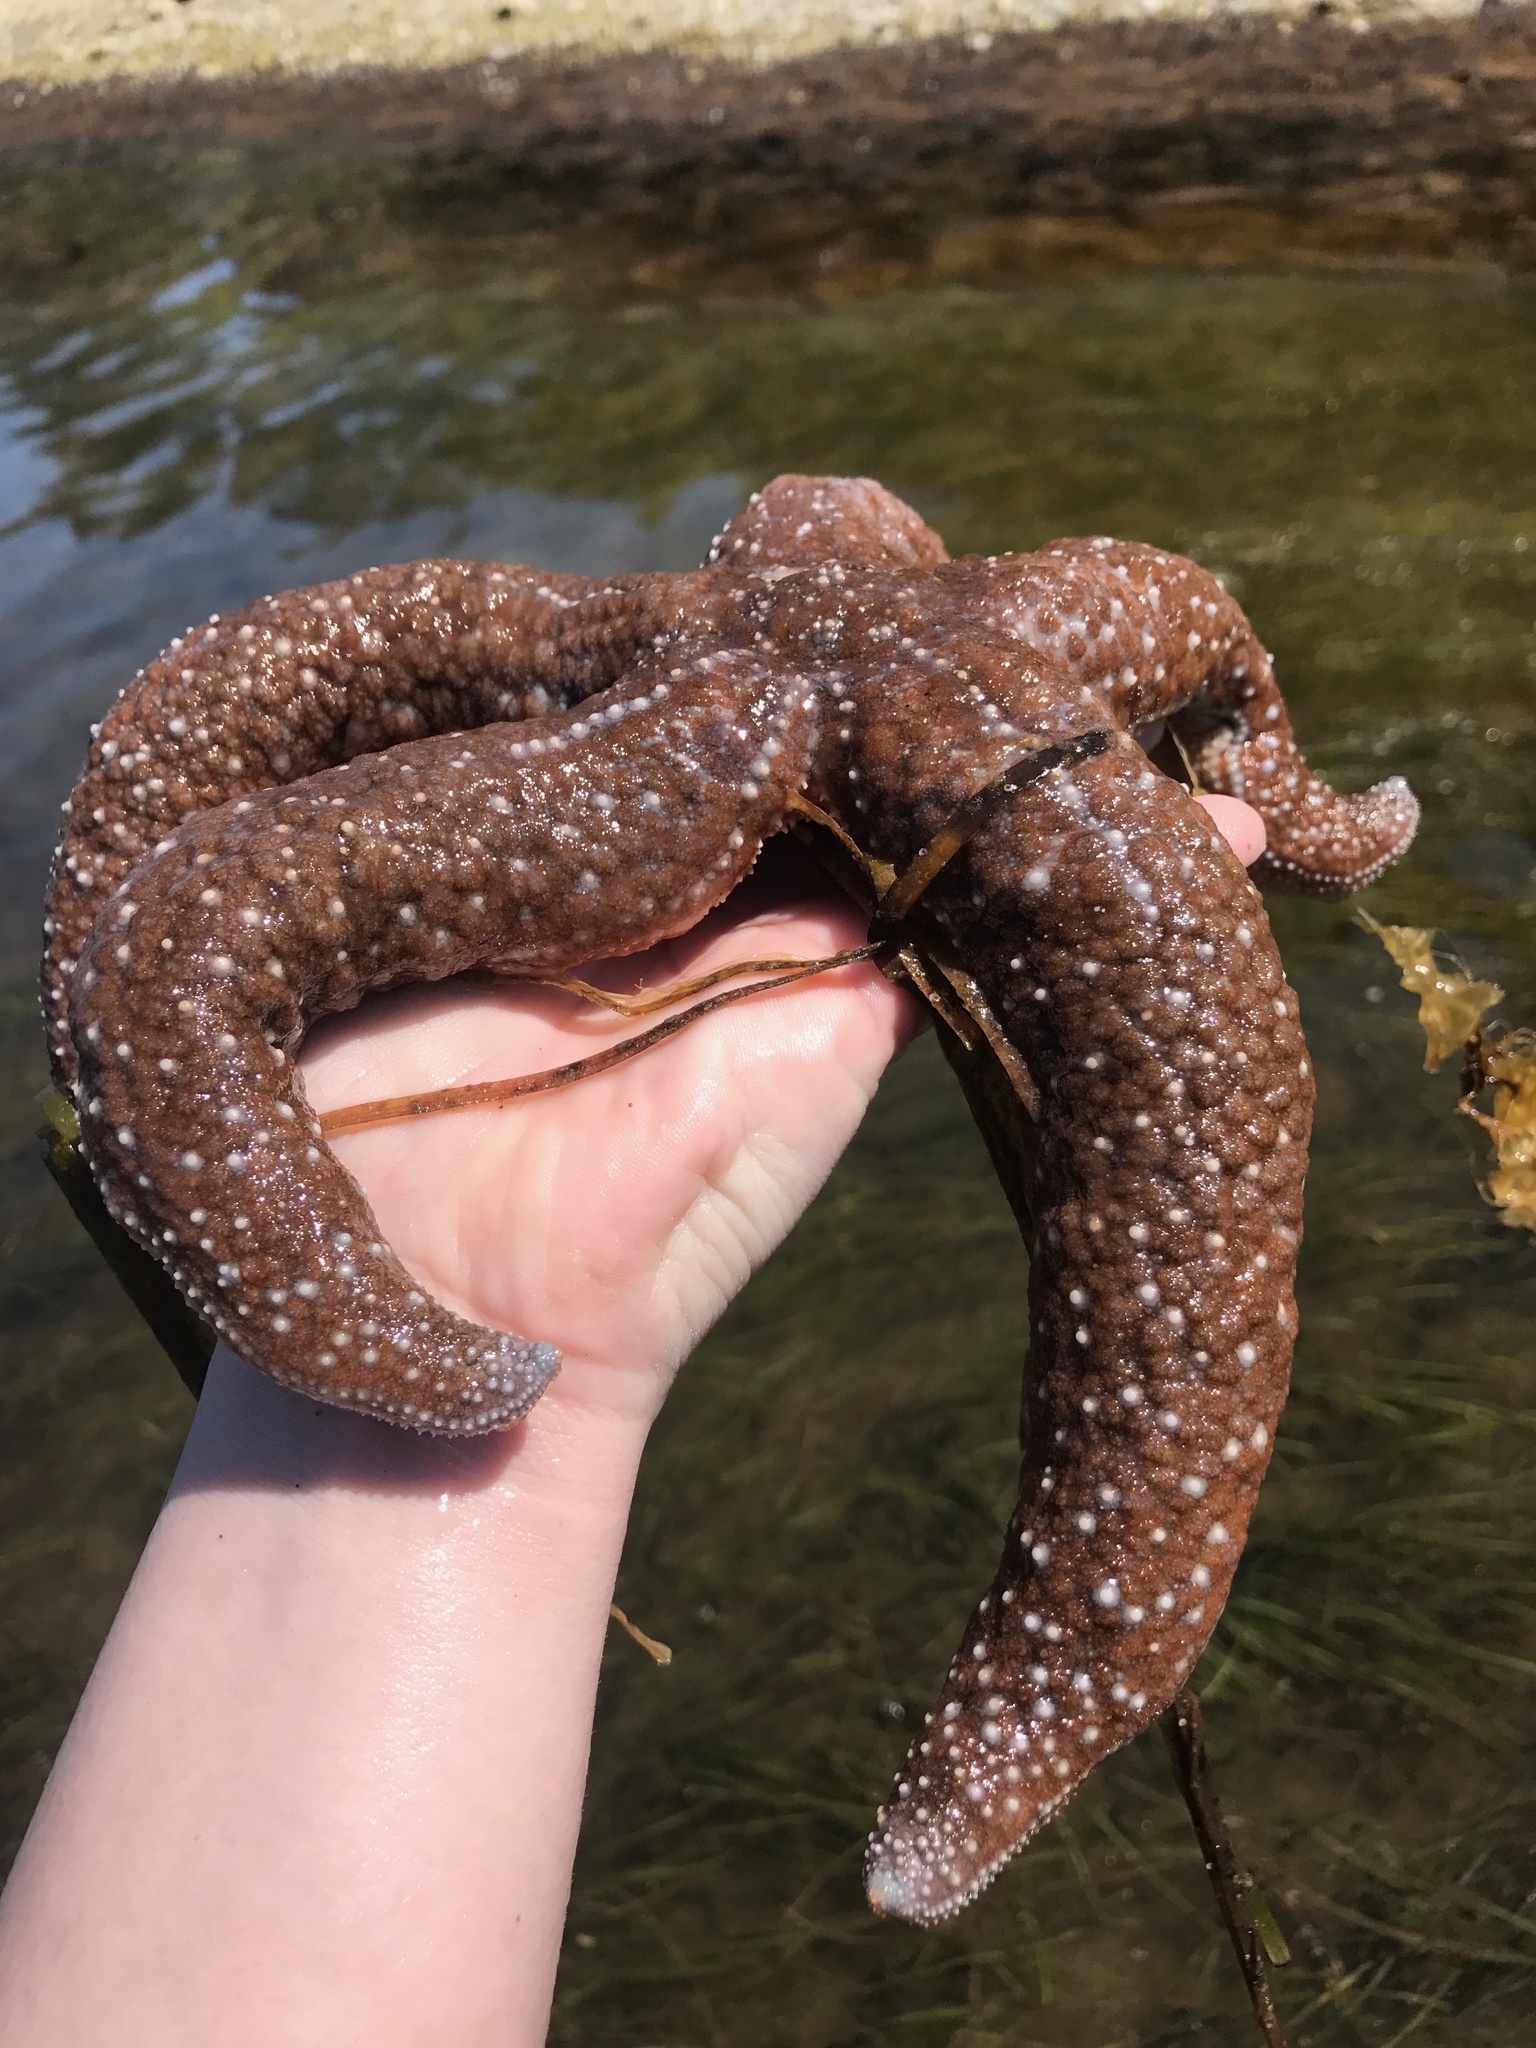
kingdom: Animalia
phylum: Echinodermata
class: Asteroidea
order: Forcipulatida
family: Asteriidae
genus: Evasterias
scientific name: Evasterias troschelii
